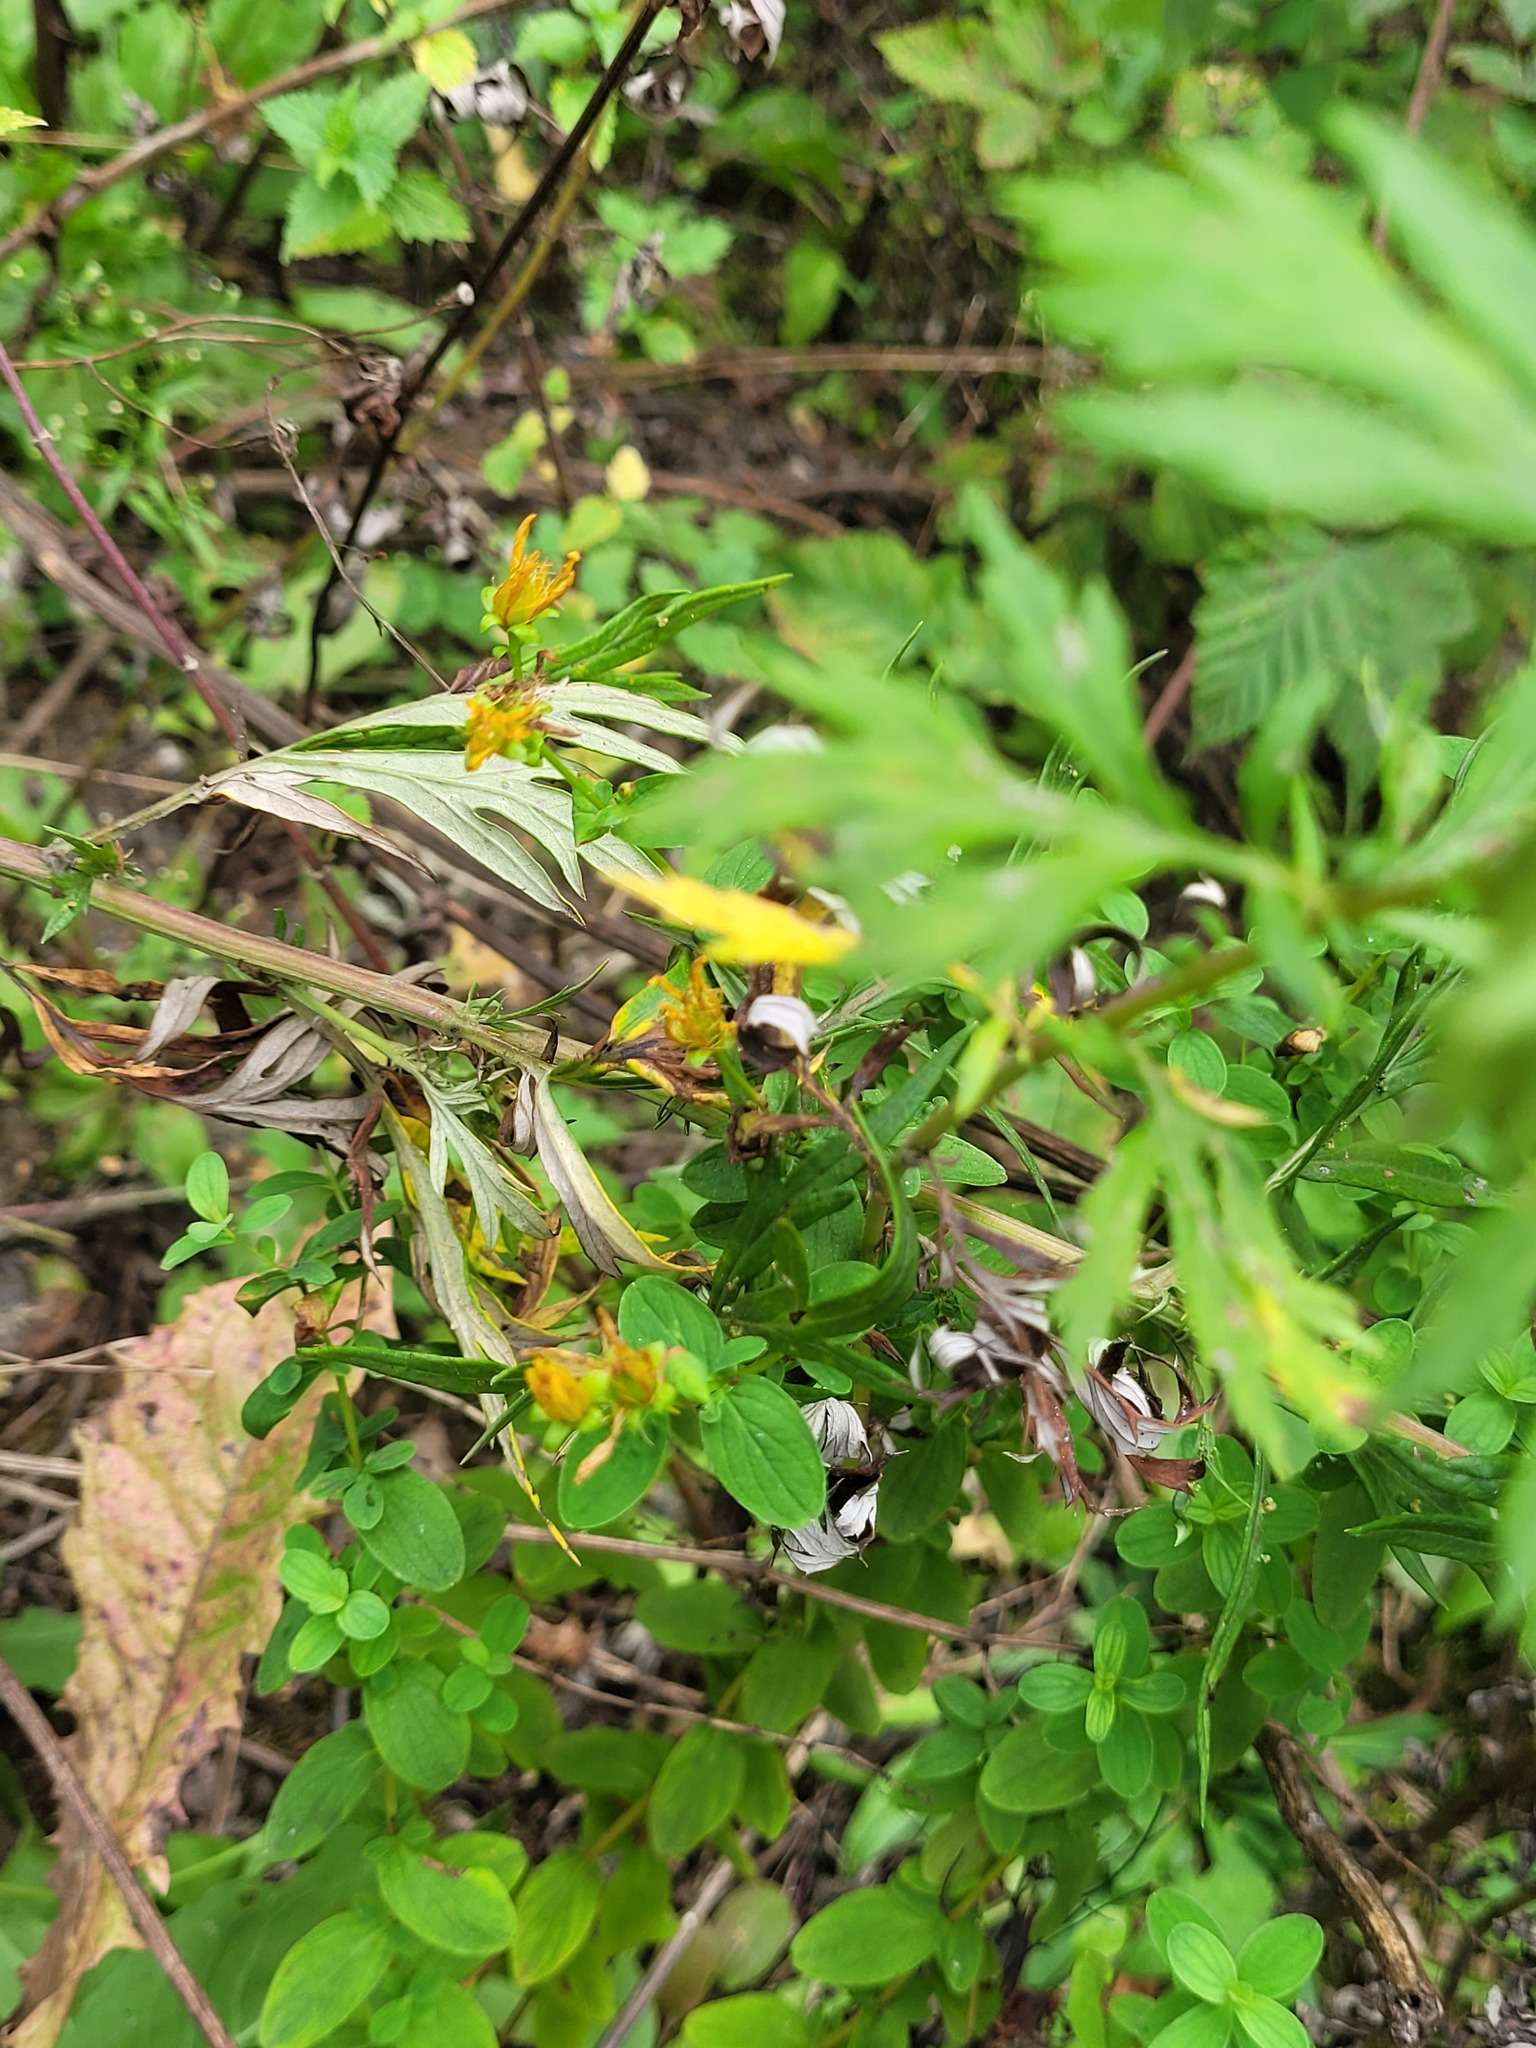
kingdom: Plantae
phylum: Tracheophyta
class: Magnoliopsida
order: Malpighiales
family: Hypericaceae
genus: Hypericum
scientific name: Hypericum maculatum
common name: Imperforate st. john's-wort
